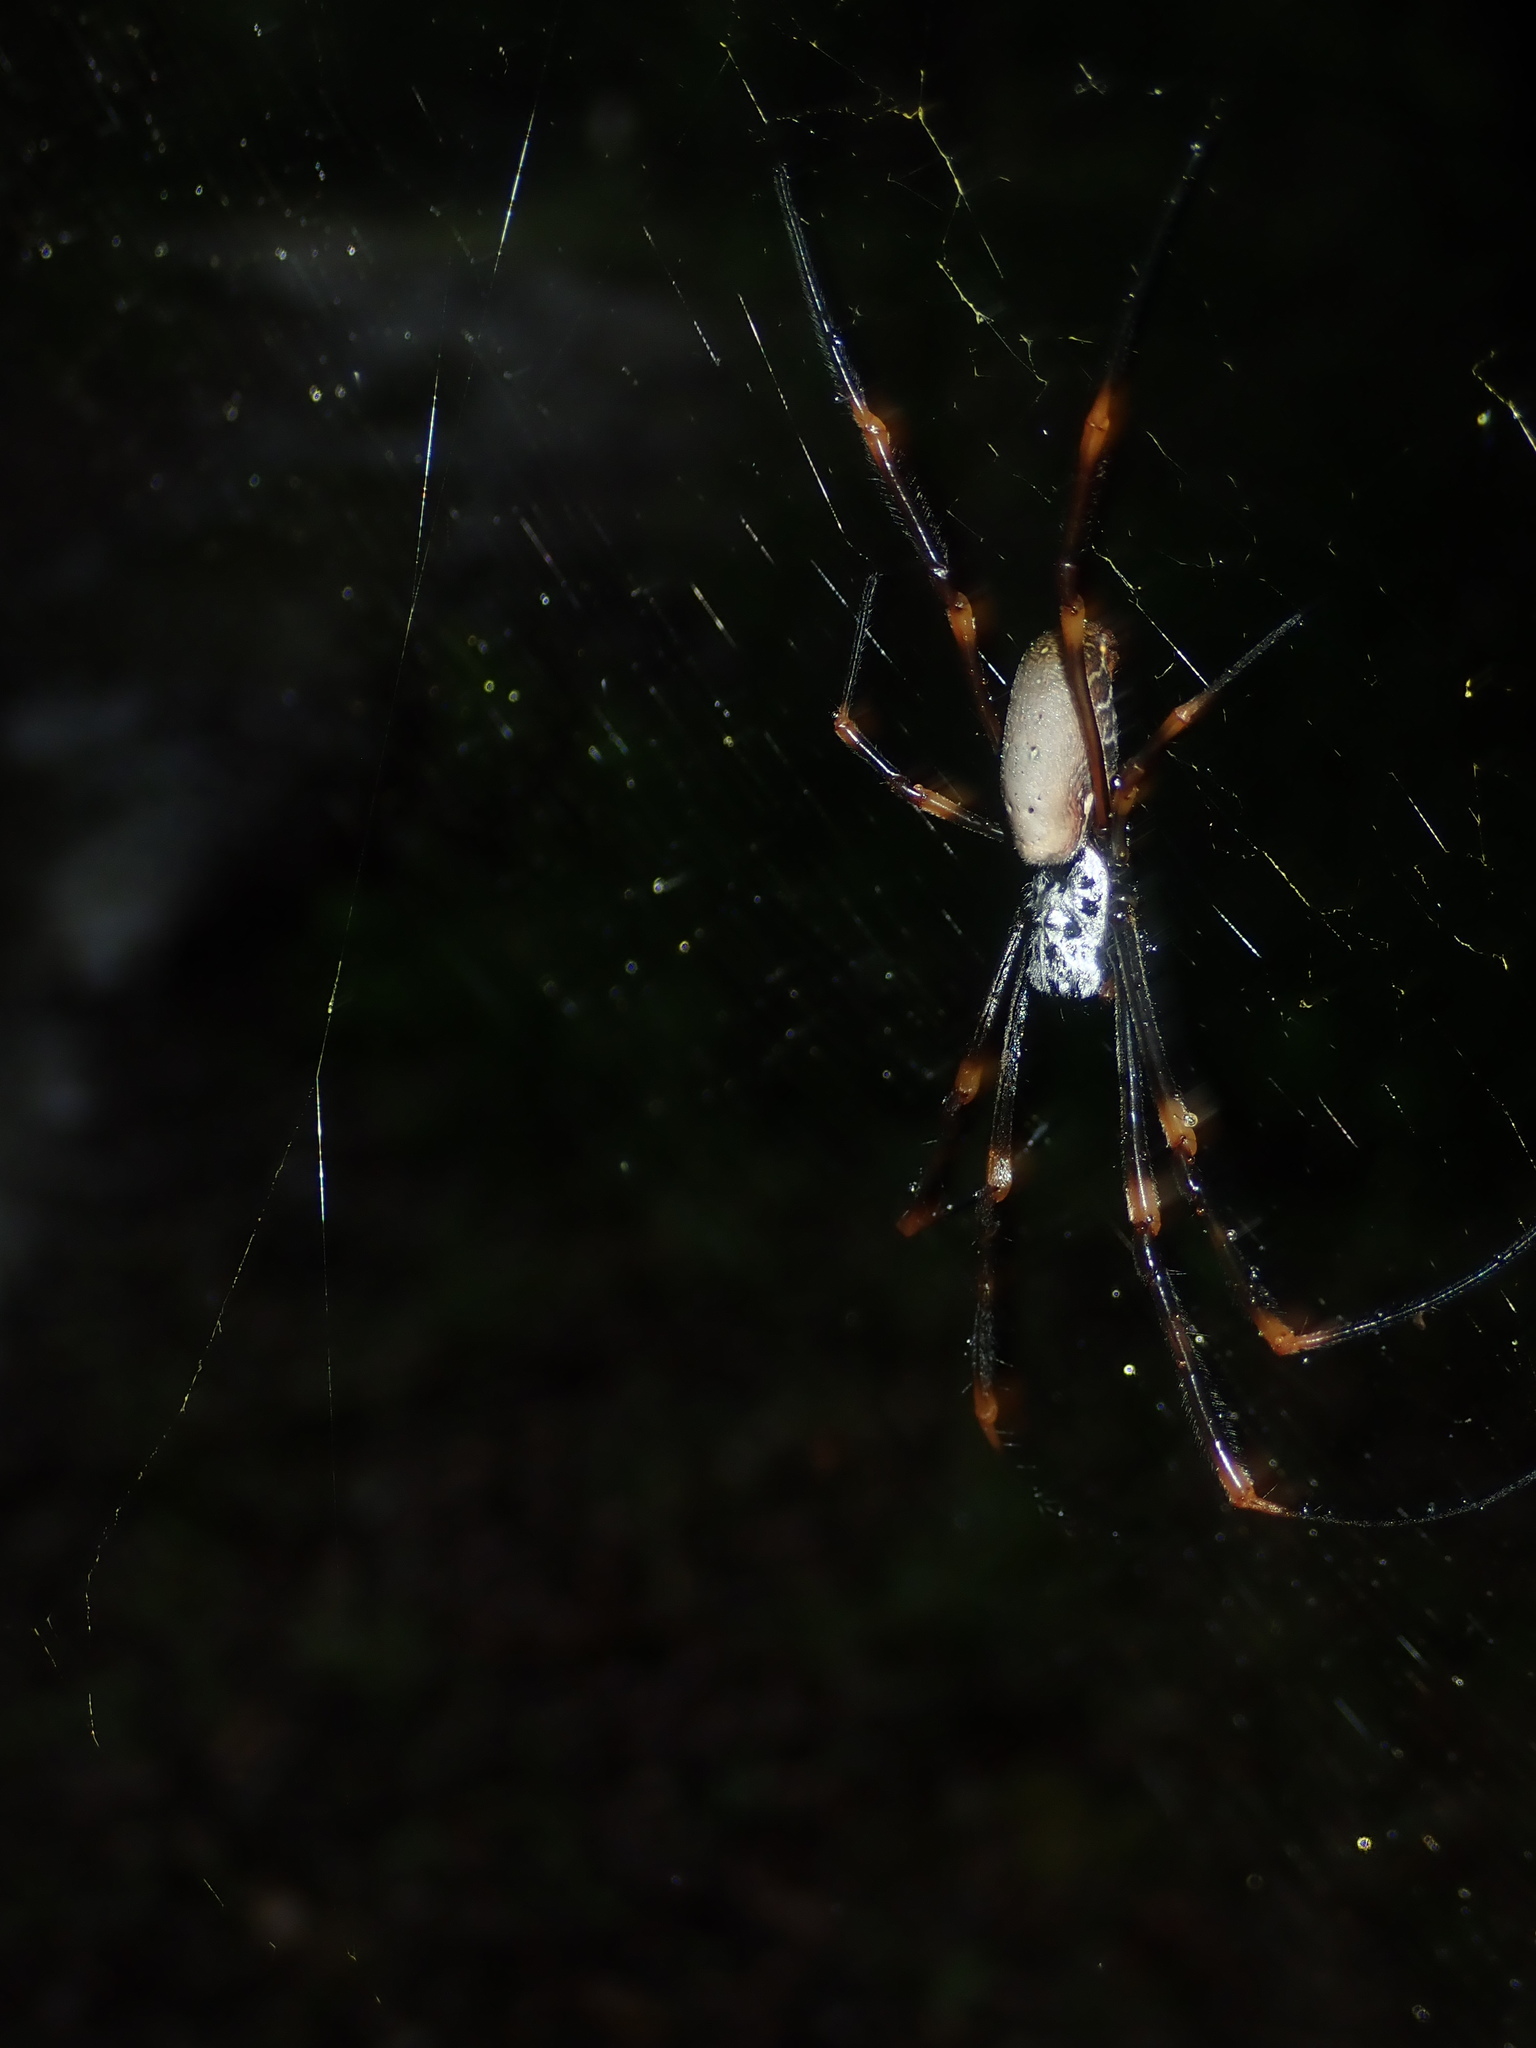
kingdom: Animalia
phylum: Arthropoda
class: Arachnida
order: Araneae
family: Araneidae
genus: Trichonephila
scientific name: Trichonephila plumipes
